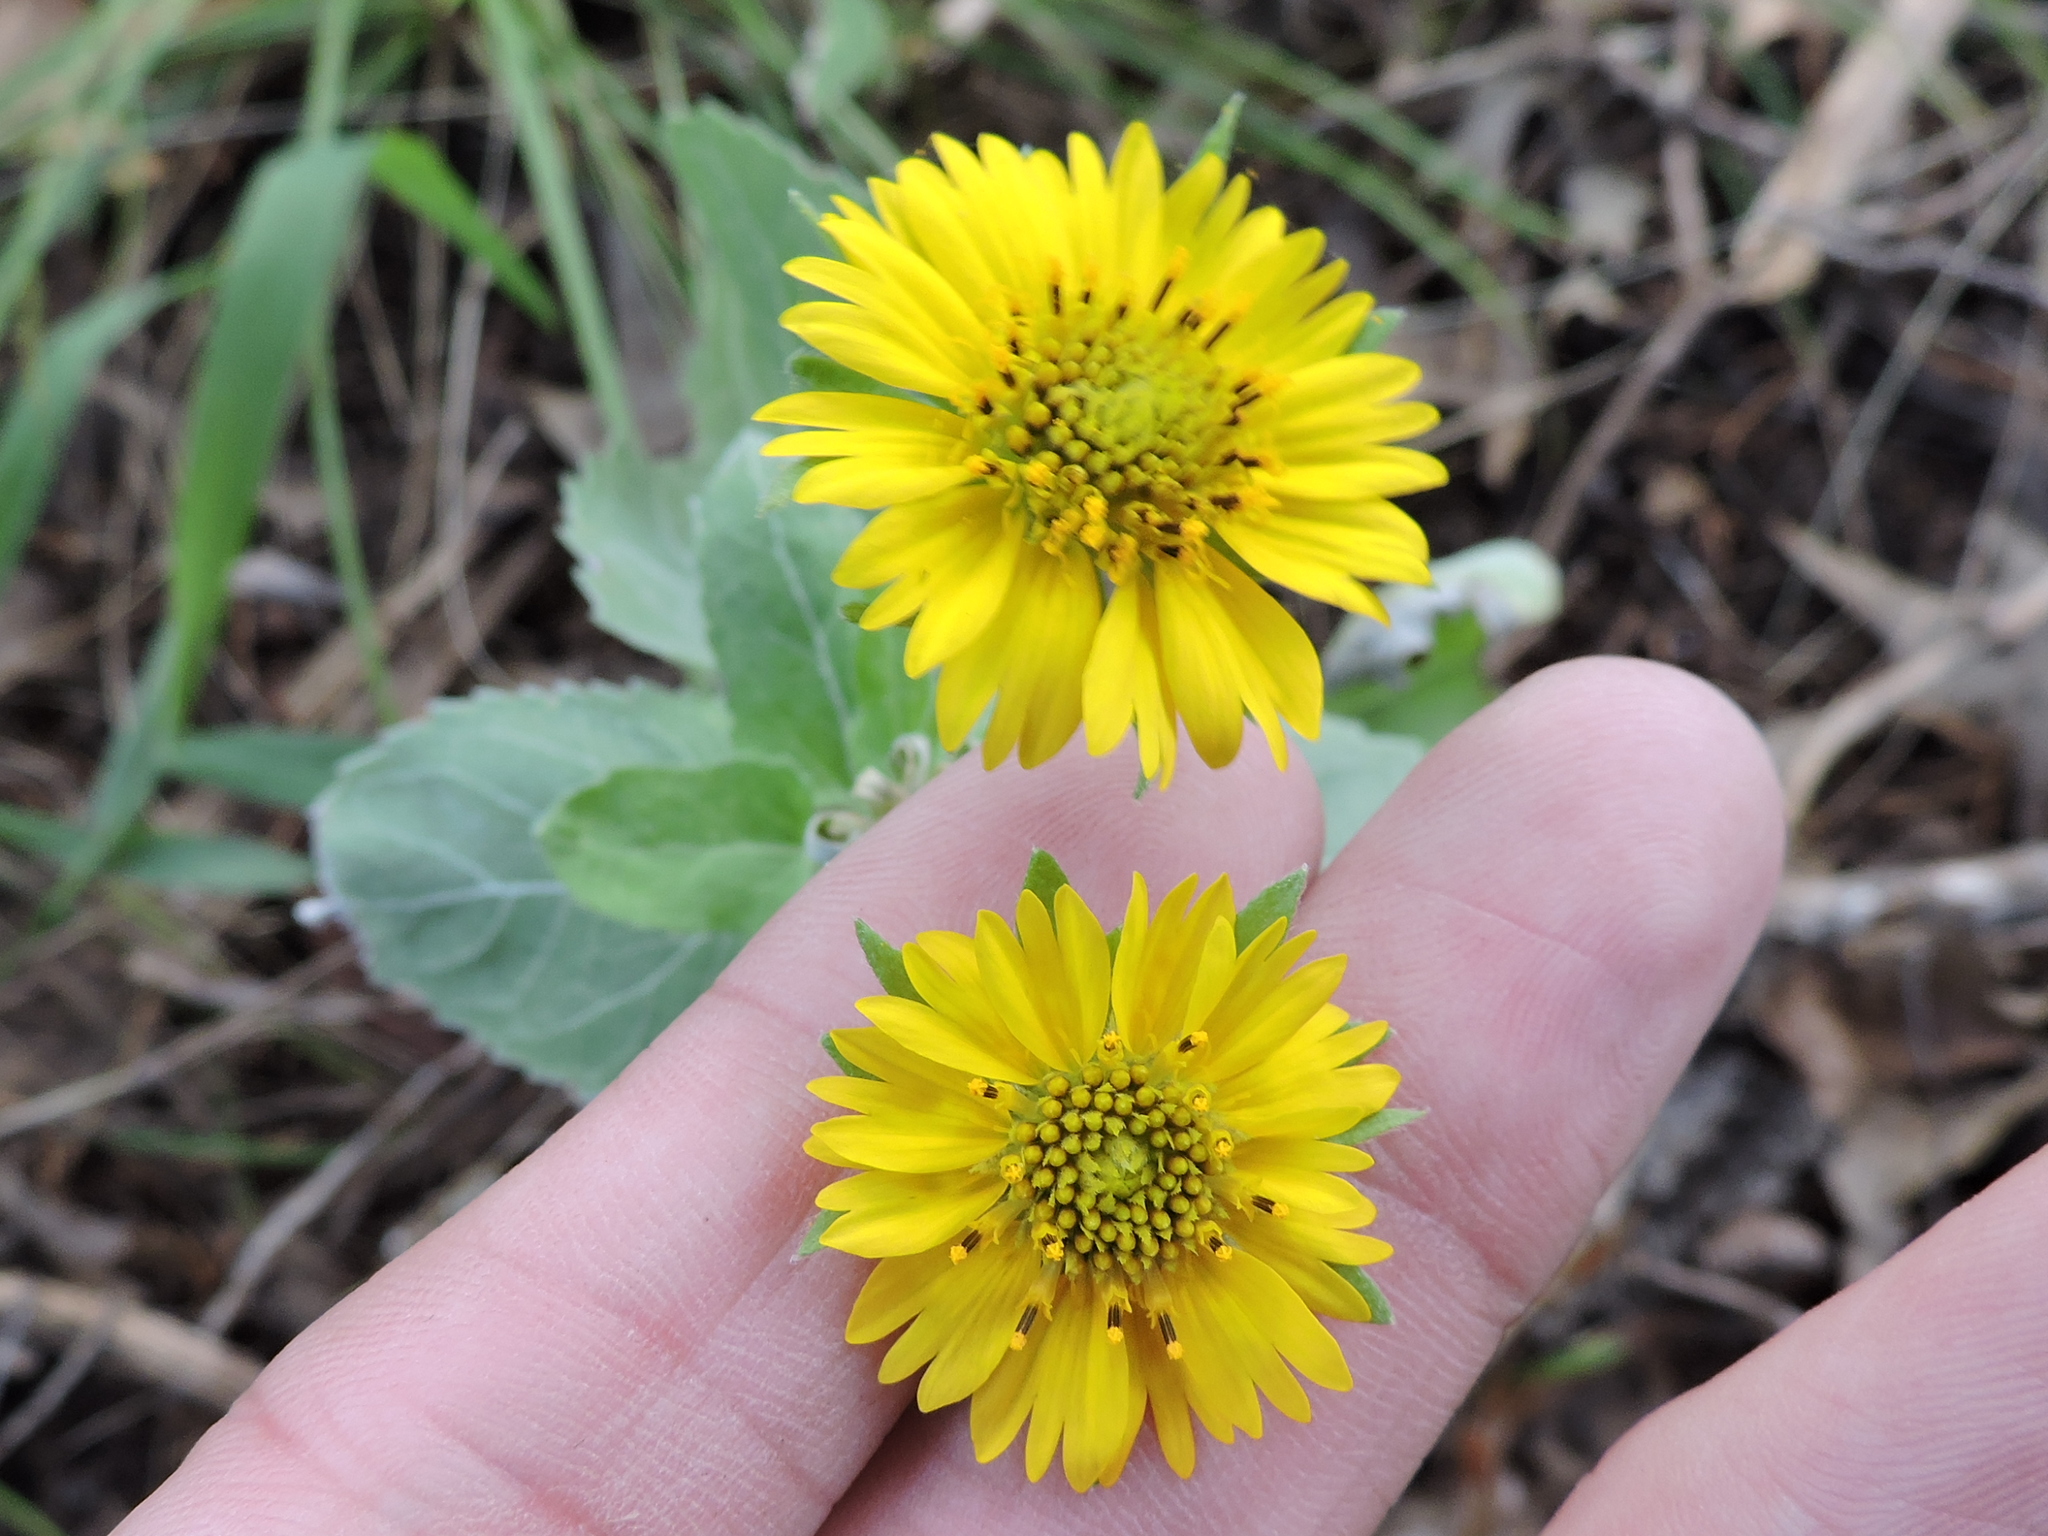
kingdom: Plantae
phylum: Tracheophyta
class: Magnoliopsida
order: Asterales
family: Asteraceae
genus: Verbesina
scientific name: Verbesina encelioides
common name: Golden crownbeard
